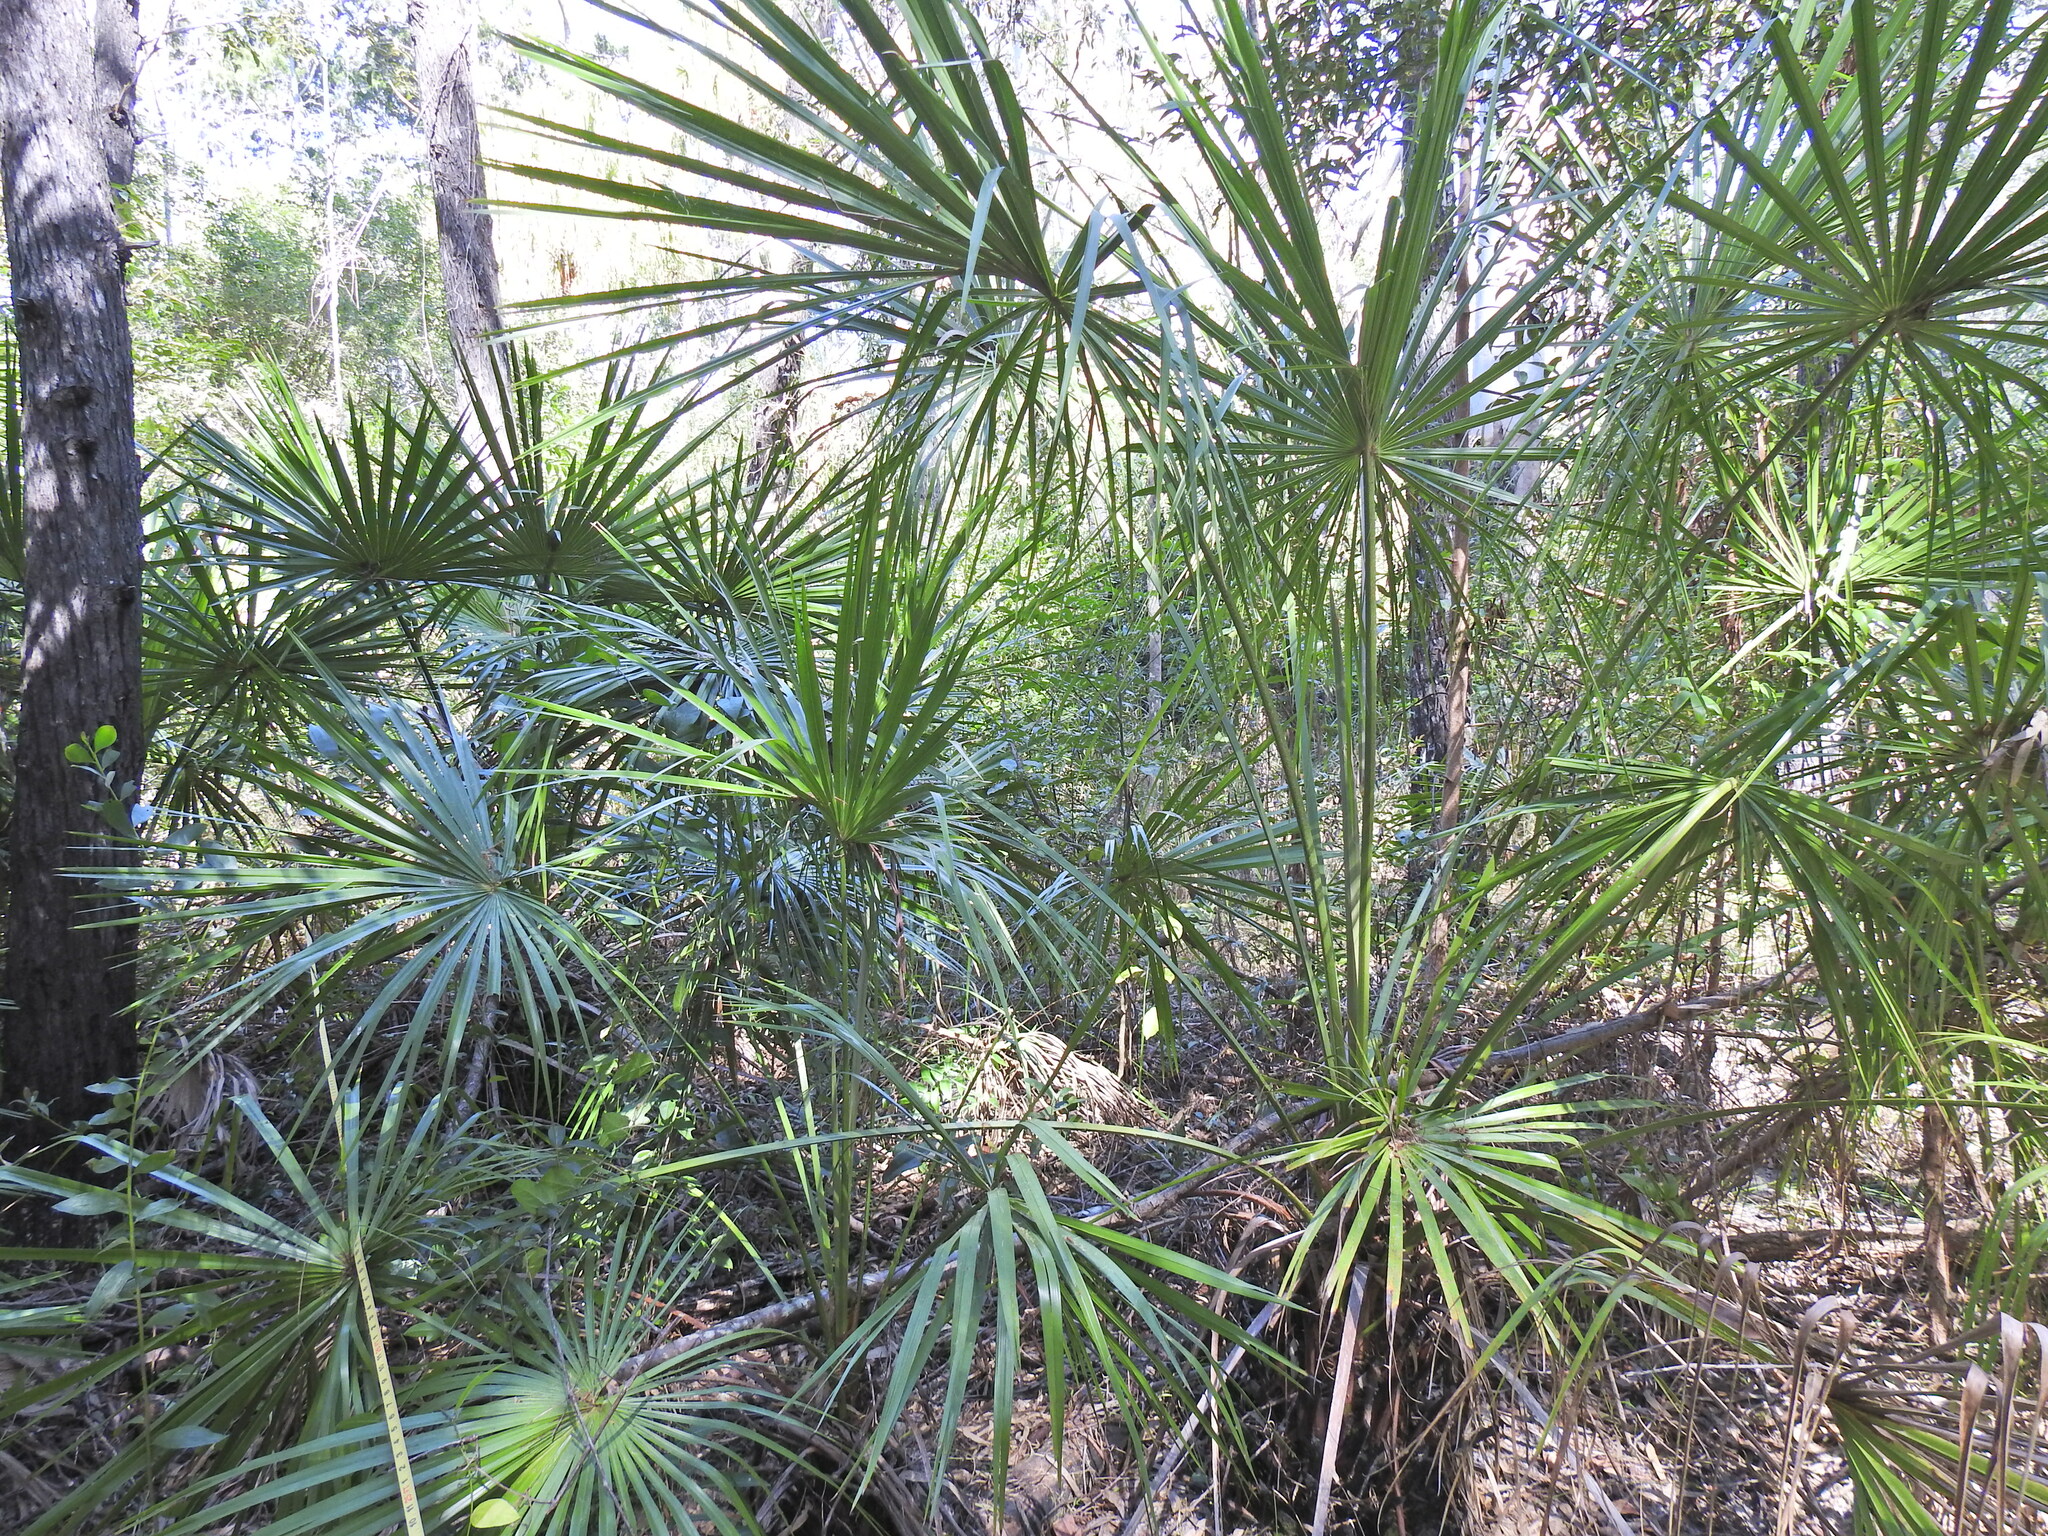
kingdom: Plantae
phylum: Tracheophyta
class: Liliopsida
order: Arecales
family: Arecaceae
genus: Livistona
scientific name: Livistona decora
